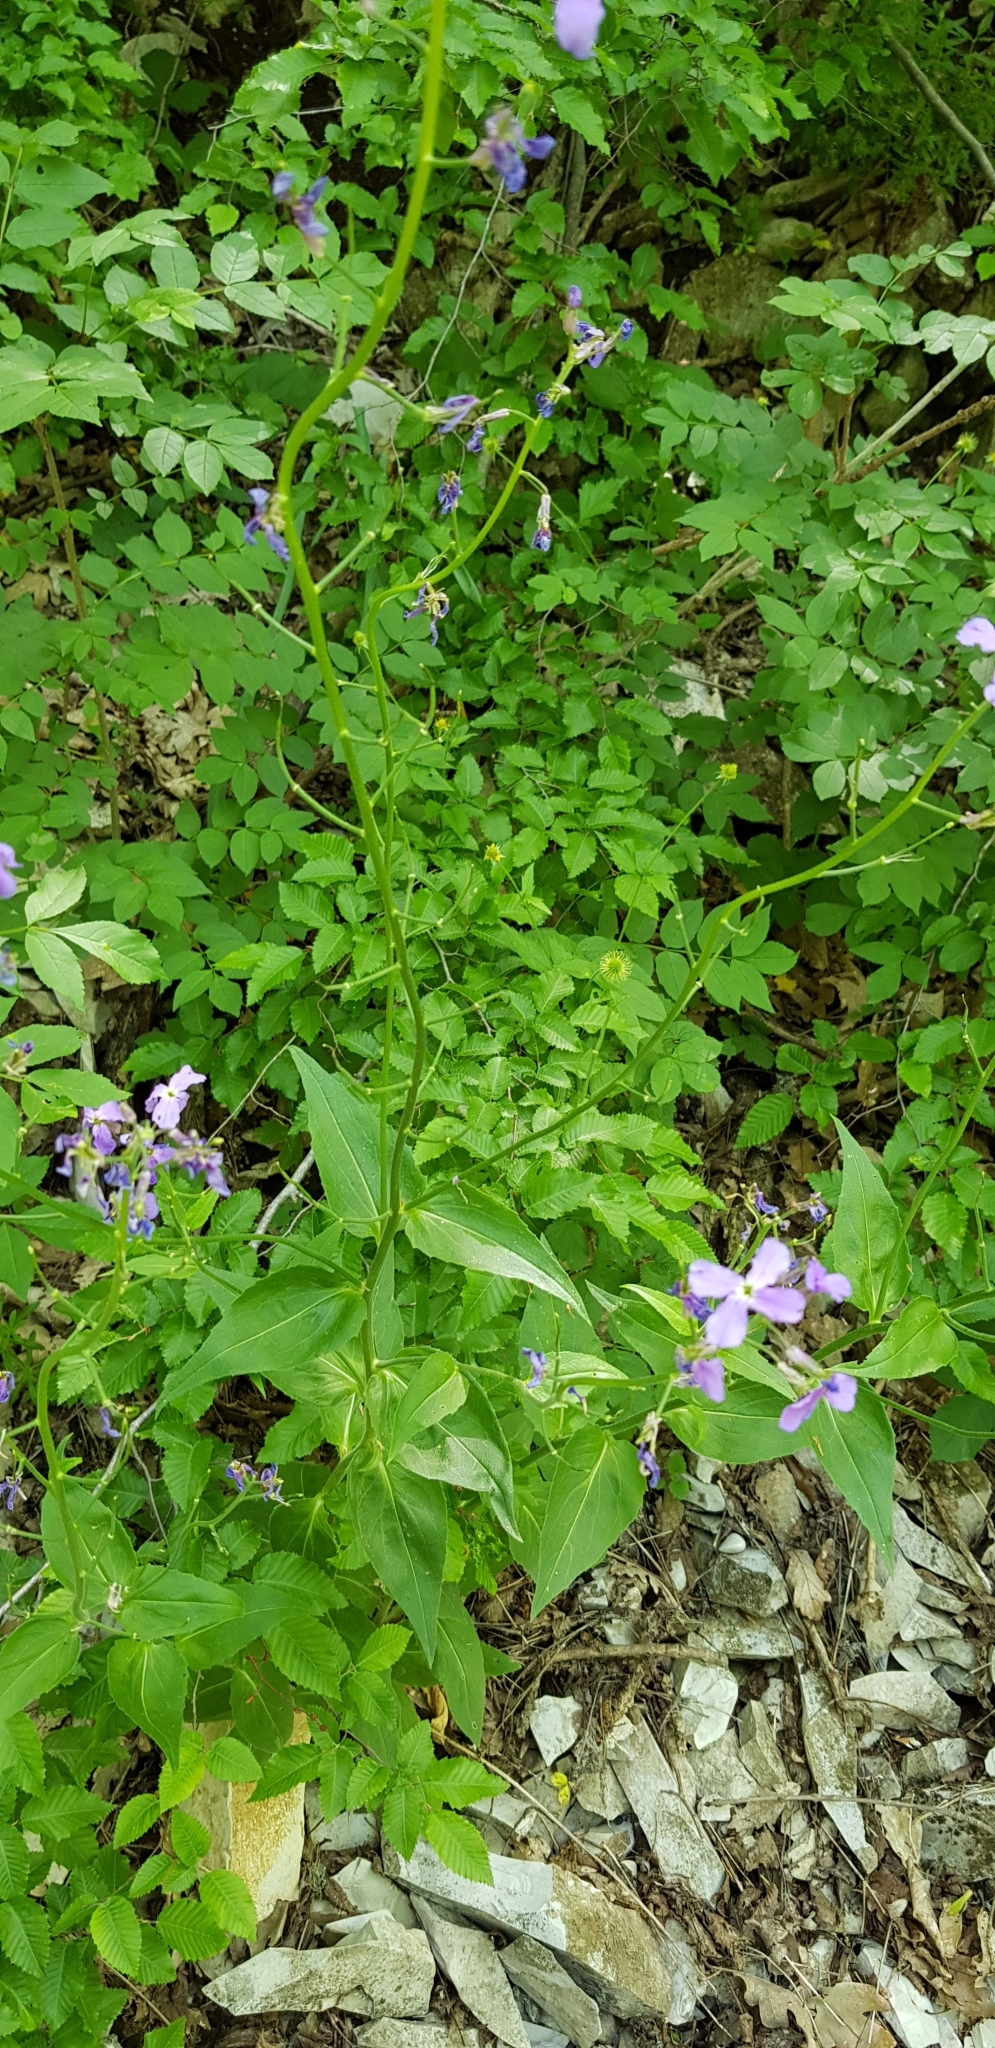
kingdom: Plantae
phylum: Tracheophyta
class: Magnoliopsida
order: Brassicales
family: Brassicaceae
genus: Hesperis
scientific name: Hesperis matronalis
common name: Dame's-violet
